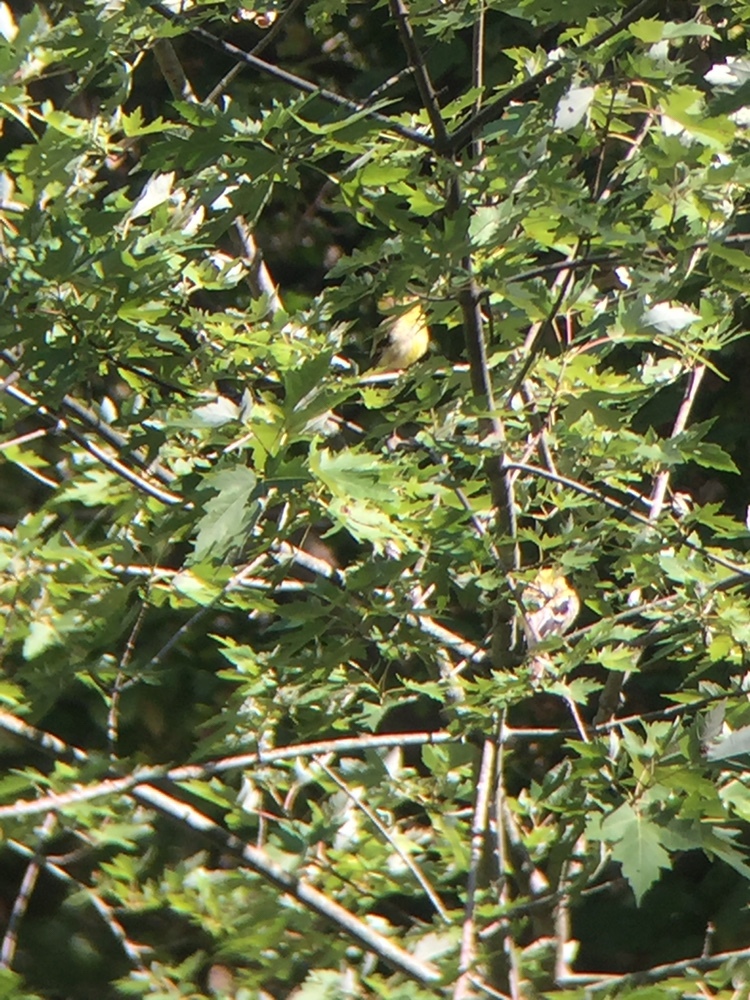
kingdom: Animalia
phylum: Chordata
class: Aves
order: Passeriformes
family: Fringillidae
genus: Spinus
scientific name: Spinus tristis
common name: American goldfinch
